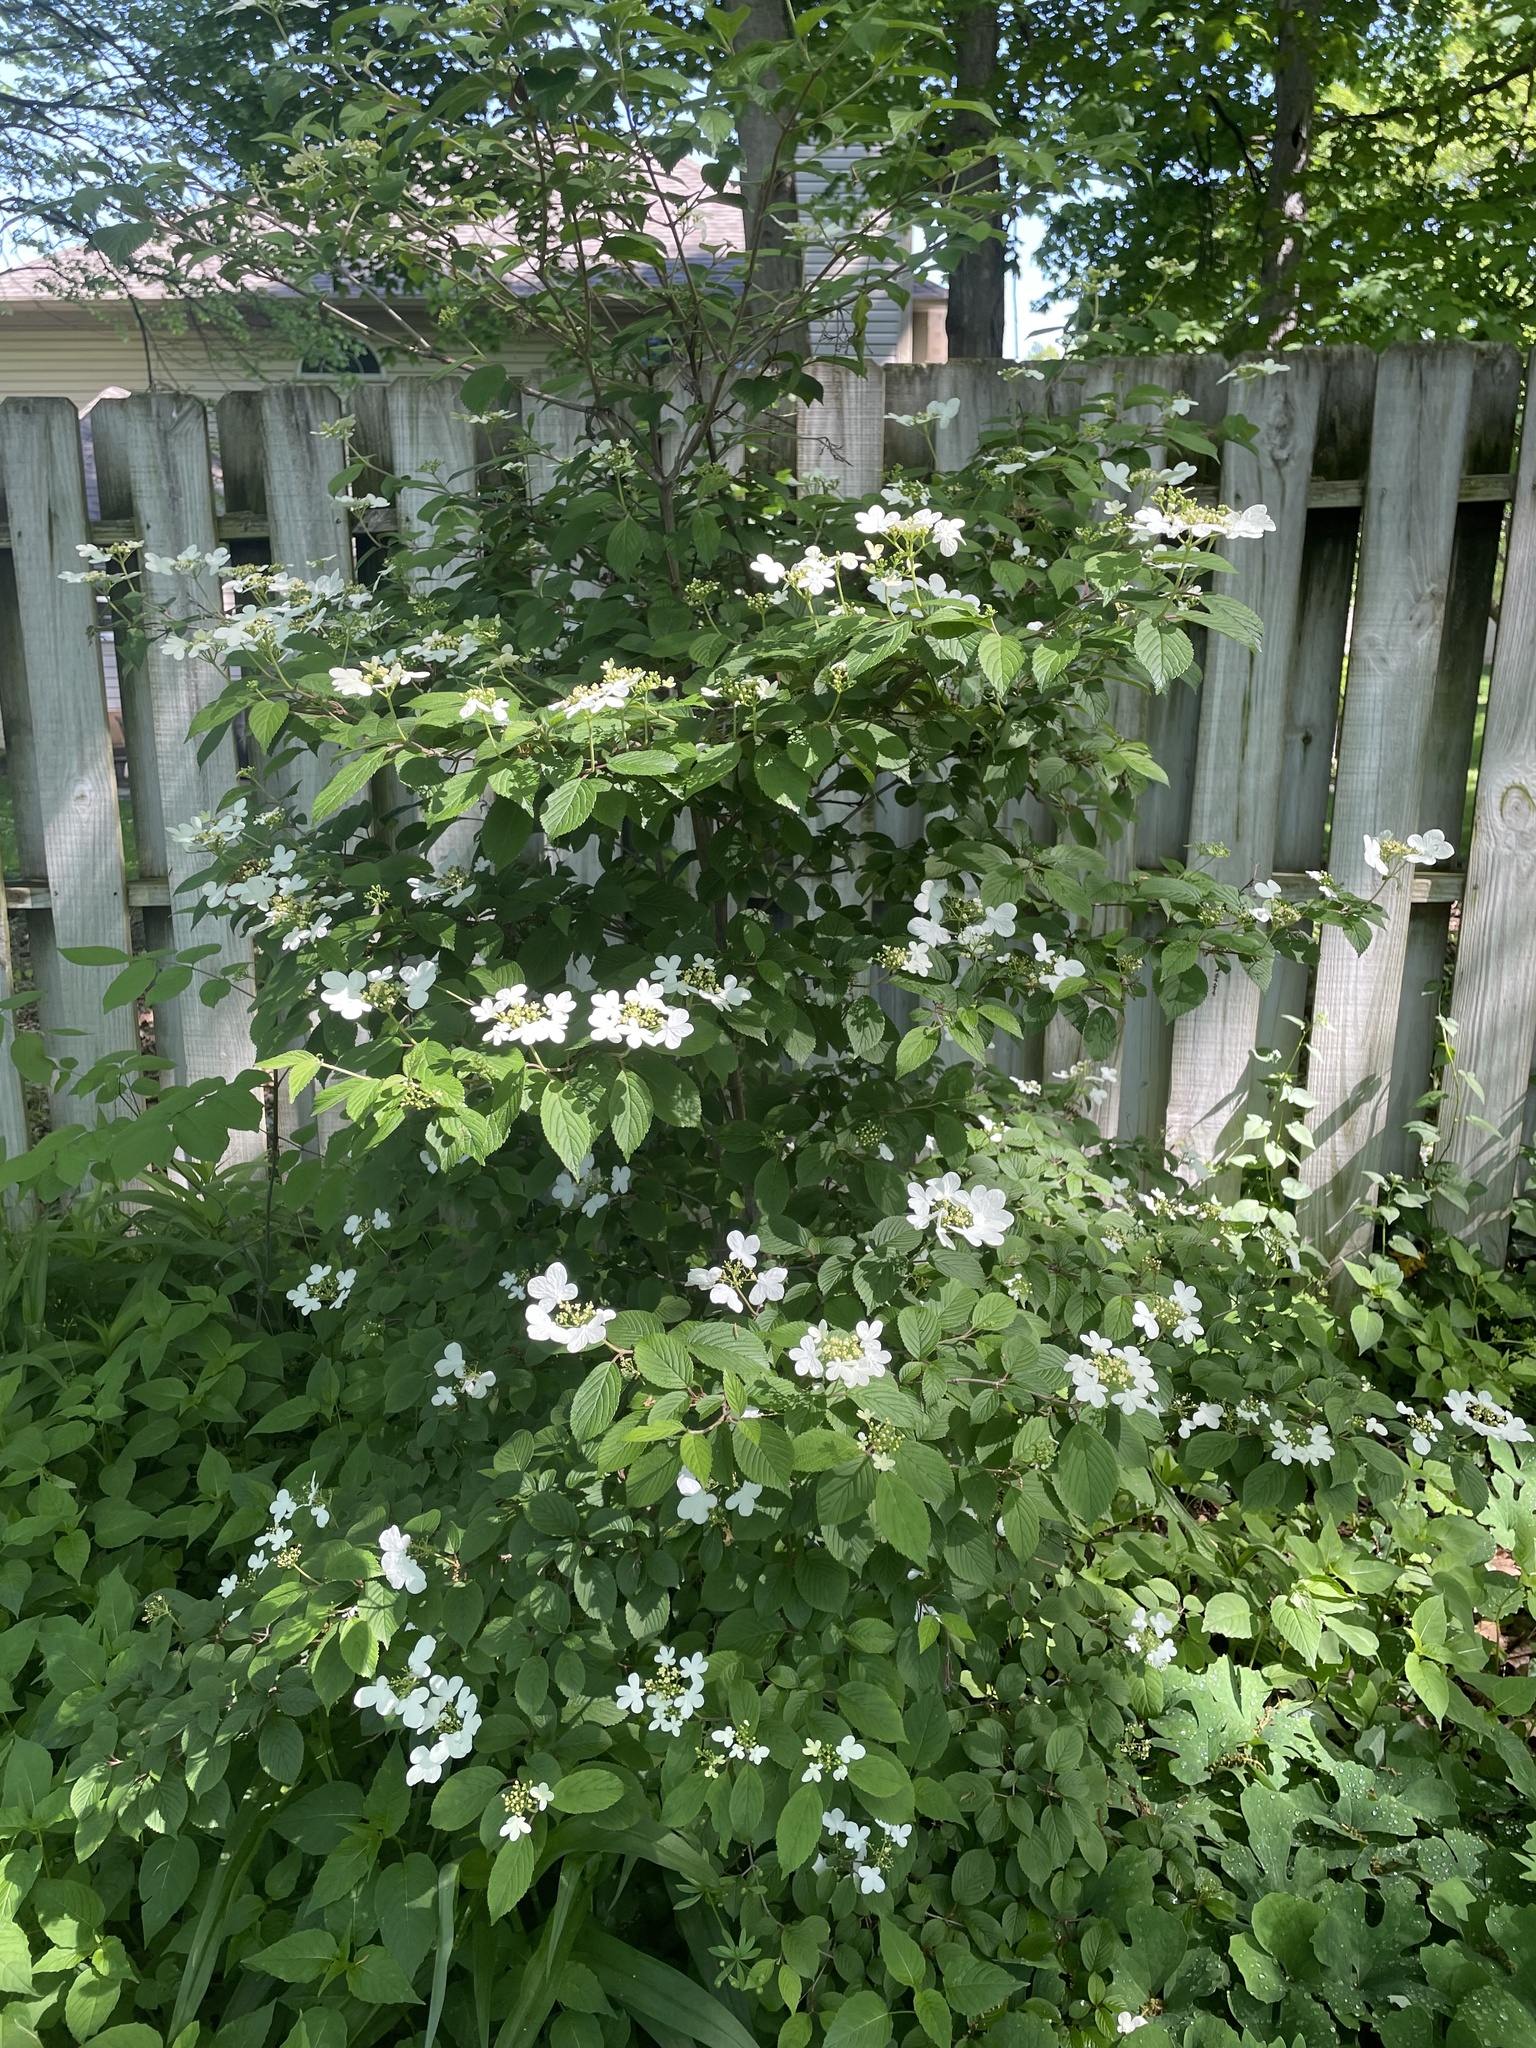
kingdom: Plantae
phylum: Tracheophyta
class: Magnoliopsida
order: Dipsacales
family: Viburnaceae
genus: Viburnum
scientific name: Viburnum plicatum
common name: Japanese snowball
